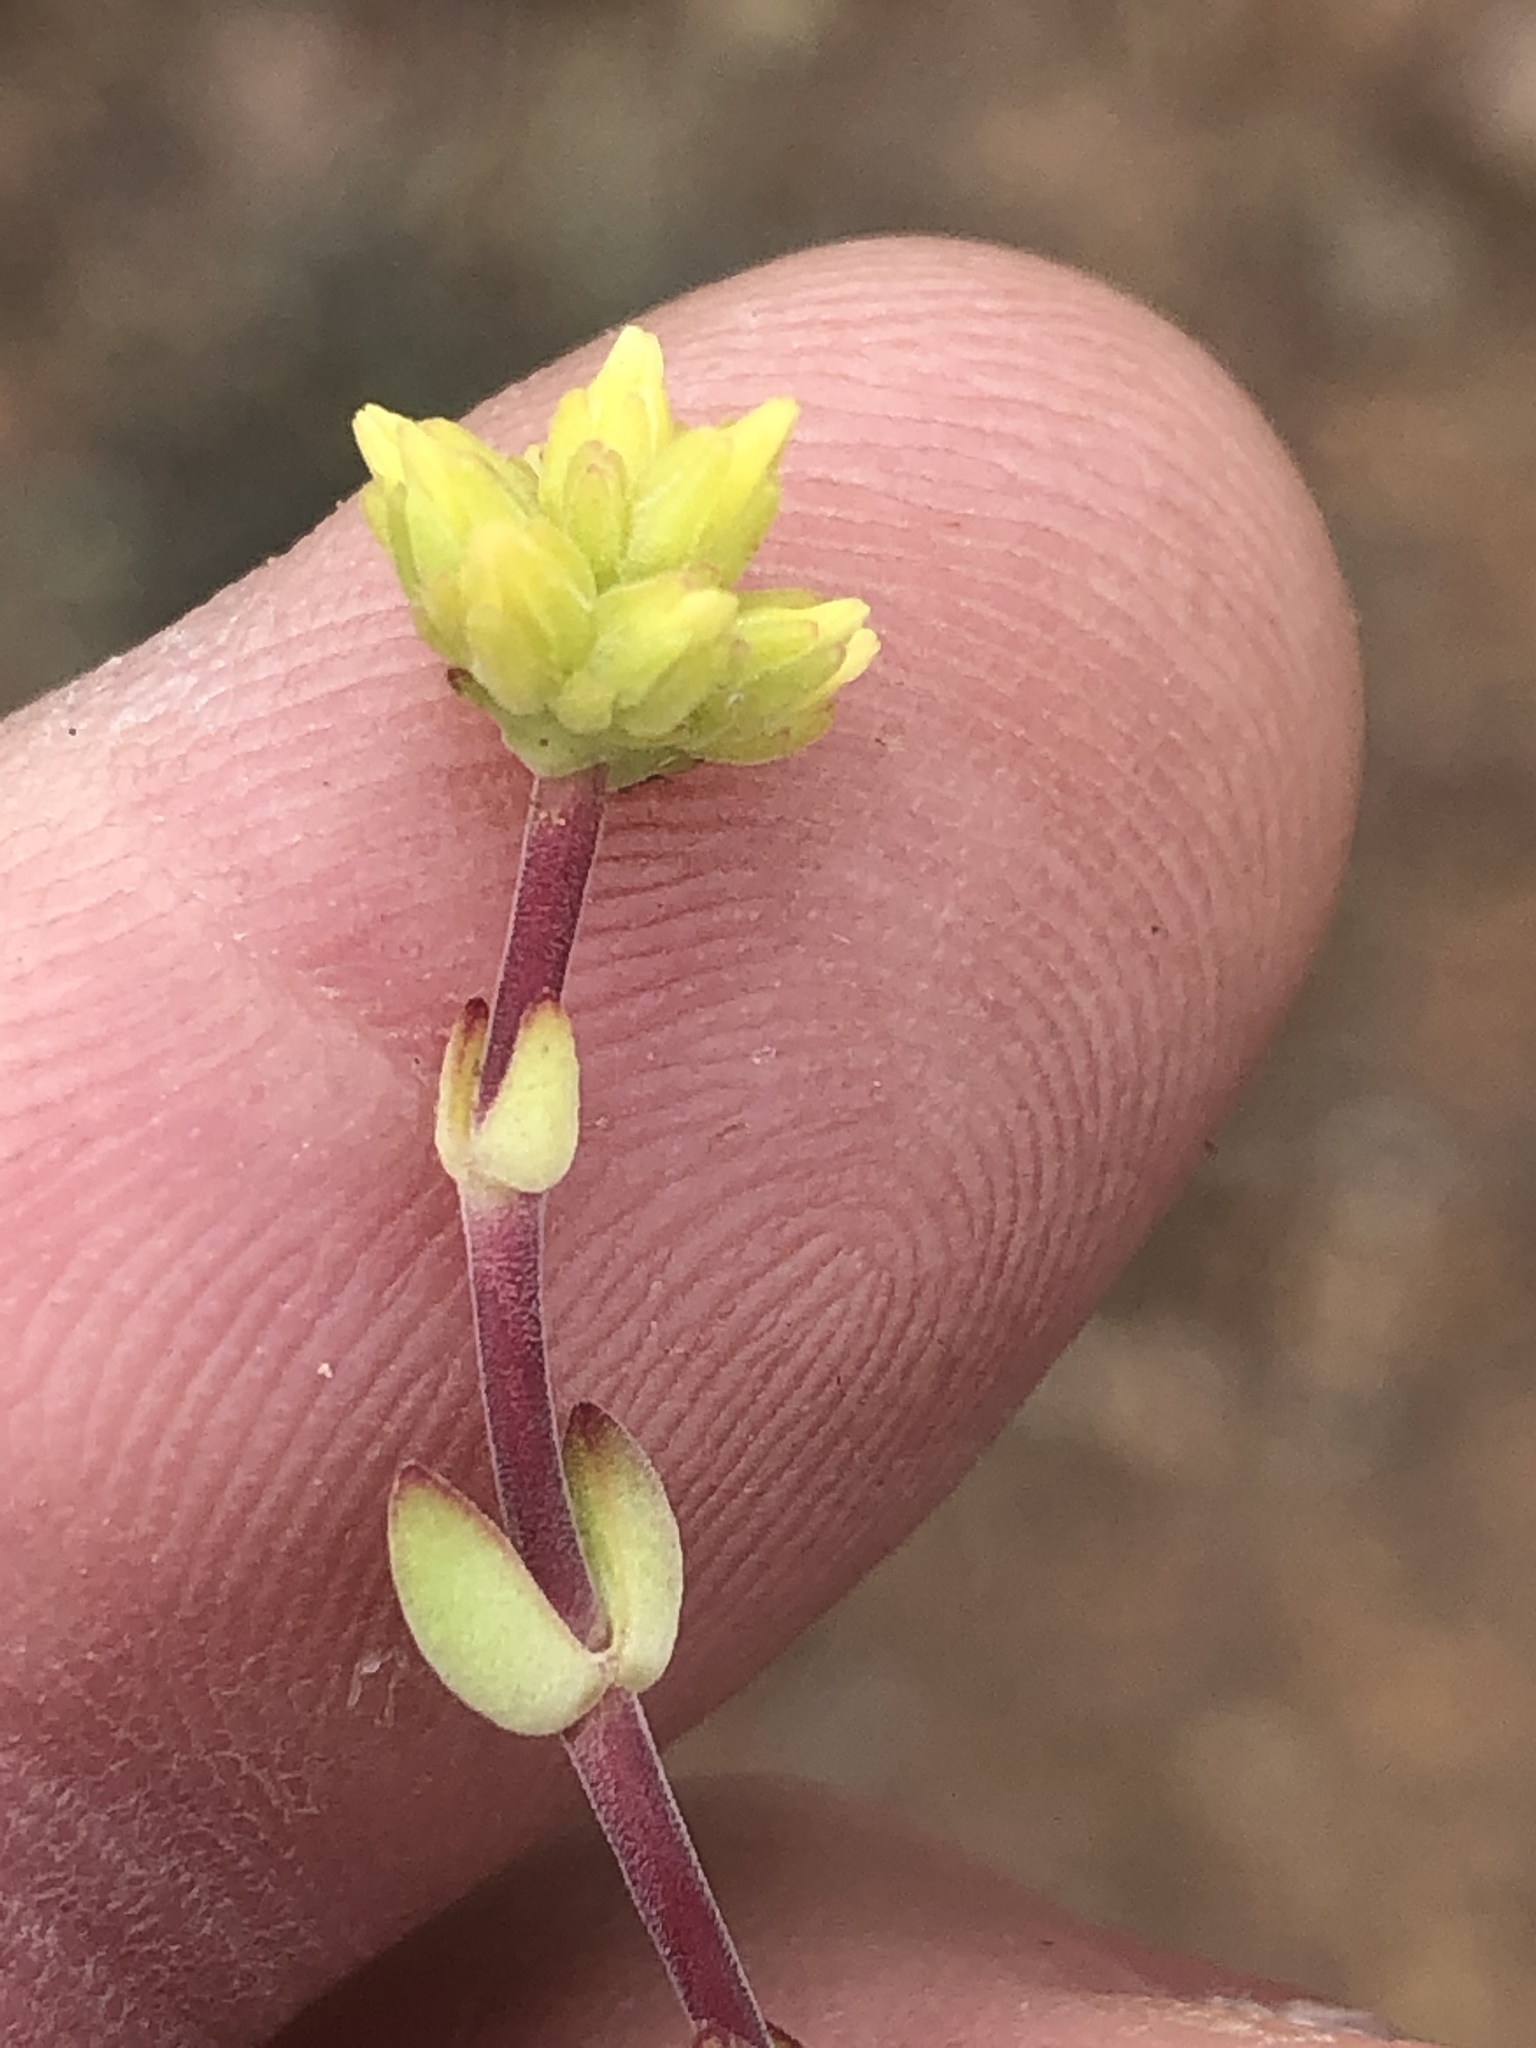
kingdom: Plantae
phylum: Tracheophyta
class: Magnoliopsida
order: Saxifragales
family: Crassulaceae
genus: Crassula
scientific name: Crassula subaphylla
